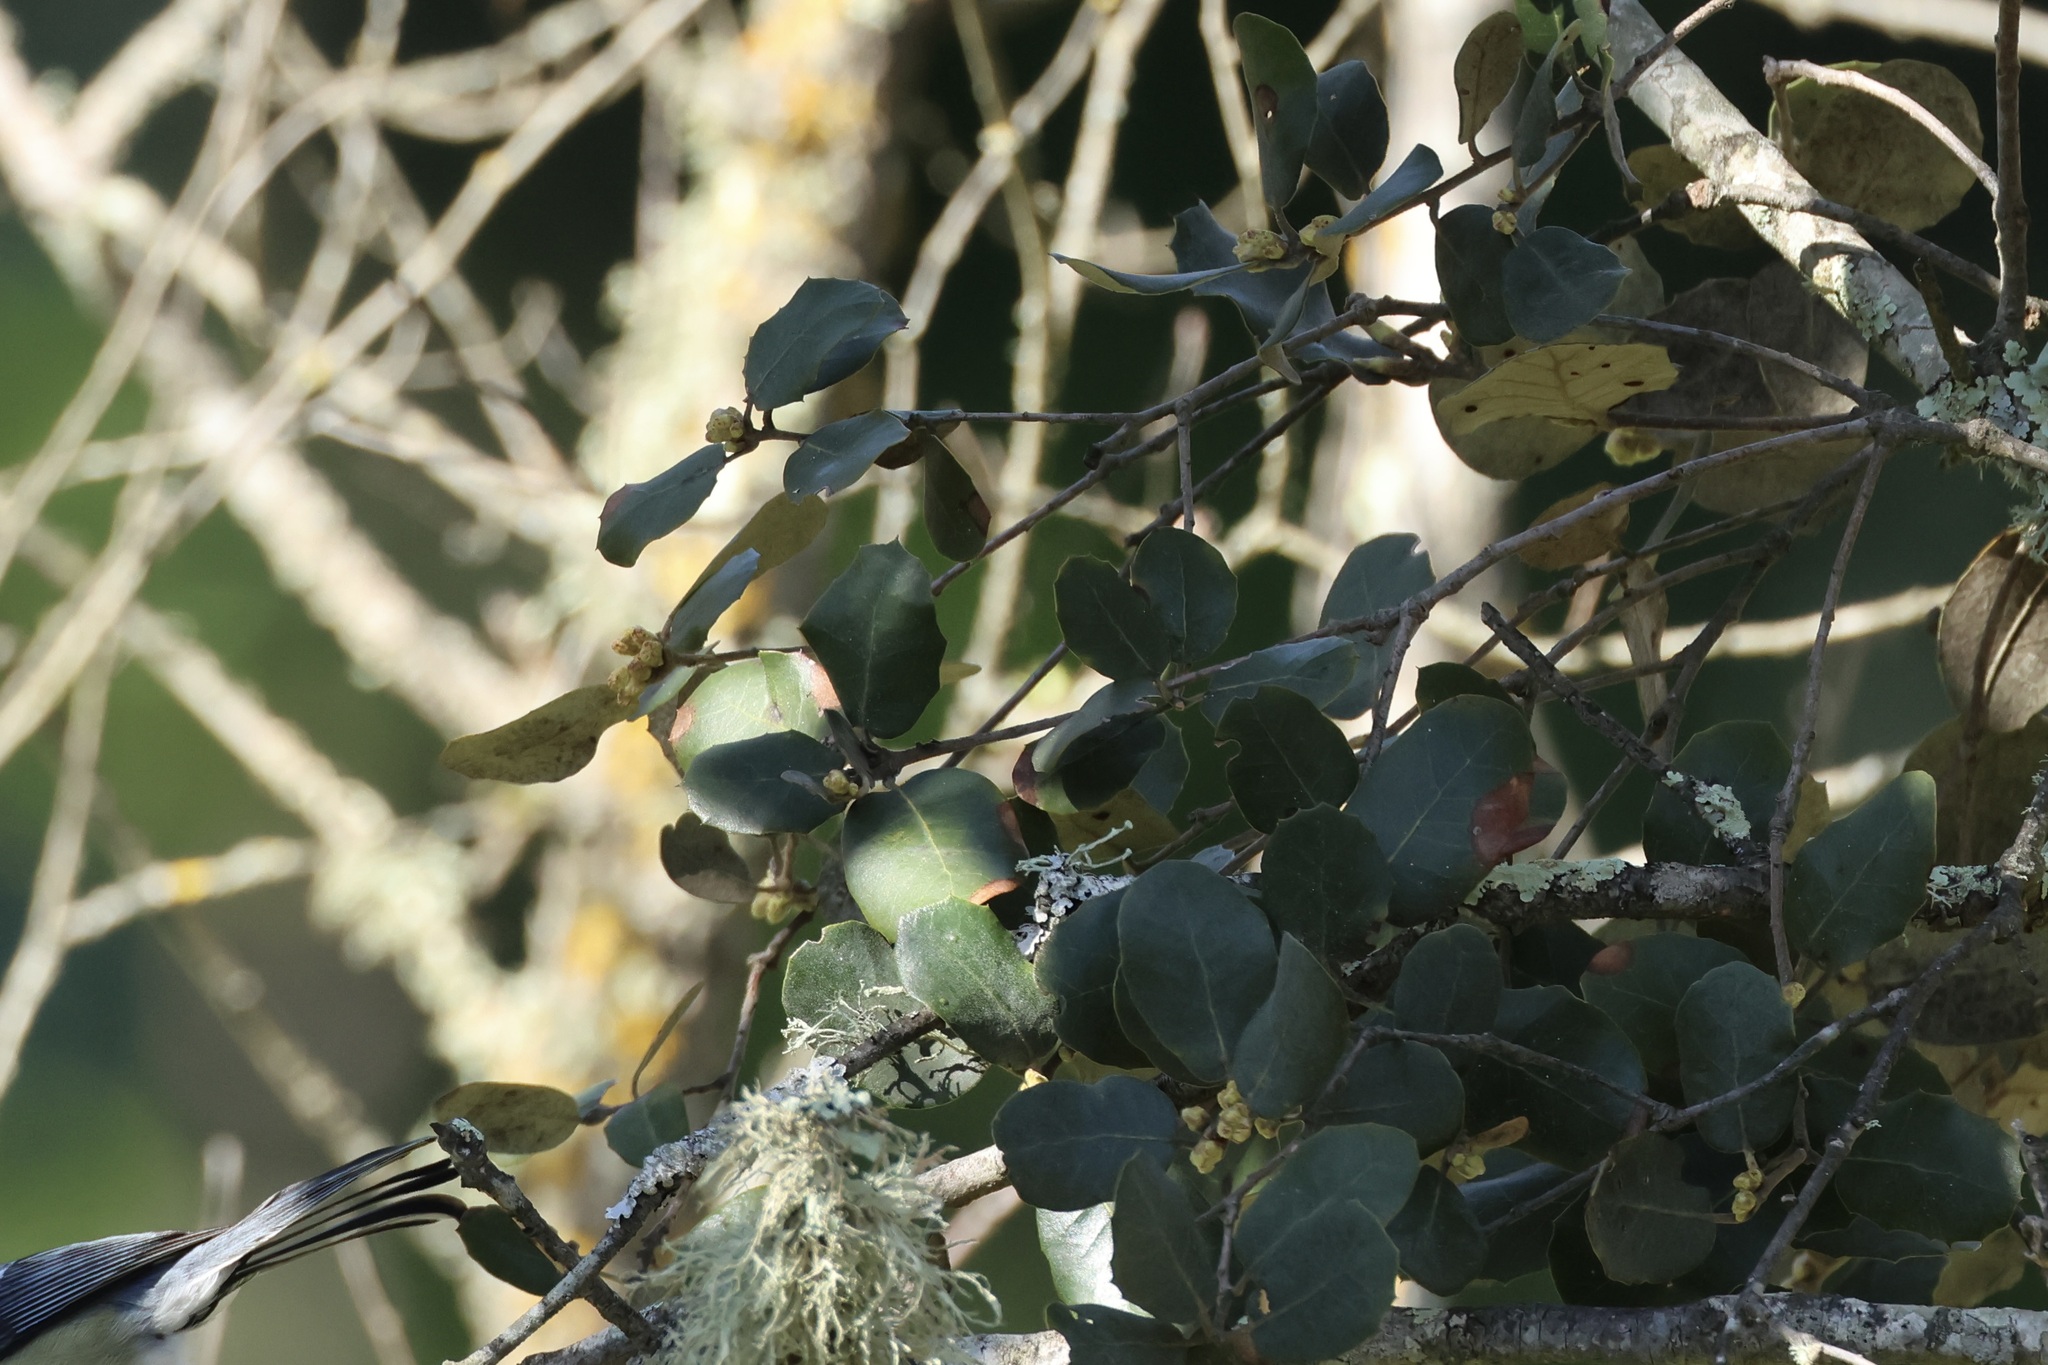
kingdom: Plantae
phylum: Tracheophyta
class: Magnoliopsida
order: Fagales
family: Fagaceae
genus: Quercus
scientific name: Quercus rotundifolia
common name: Holm oak
